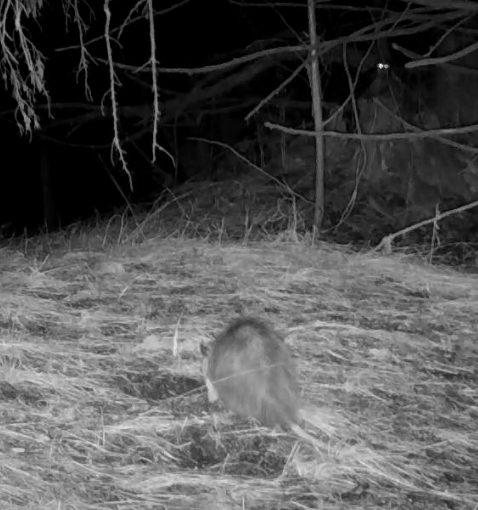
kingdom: Animalia
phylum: Chordata
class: Mammalia
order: Didelphimorphia
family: Didelphidae
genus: Didelphis
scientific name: Didelphis virginiana
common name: Virginia opossum
